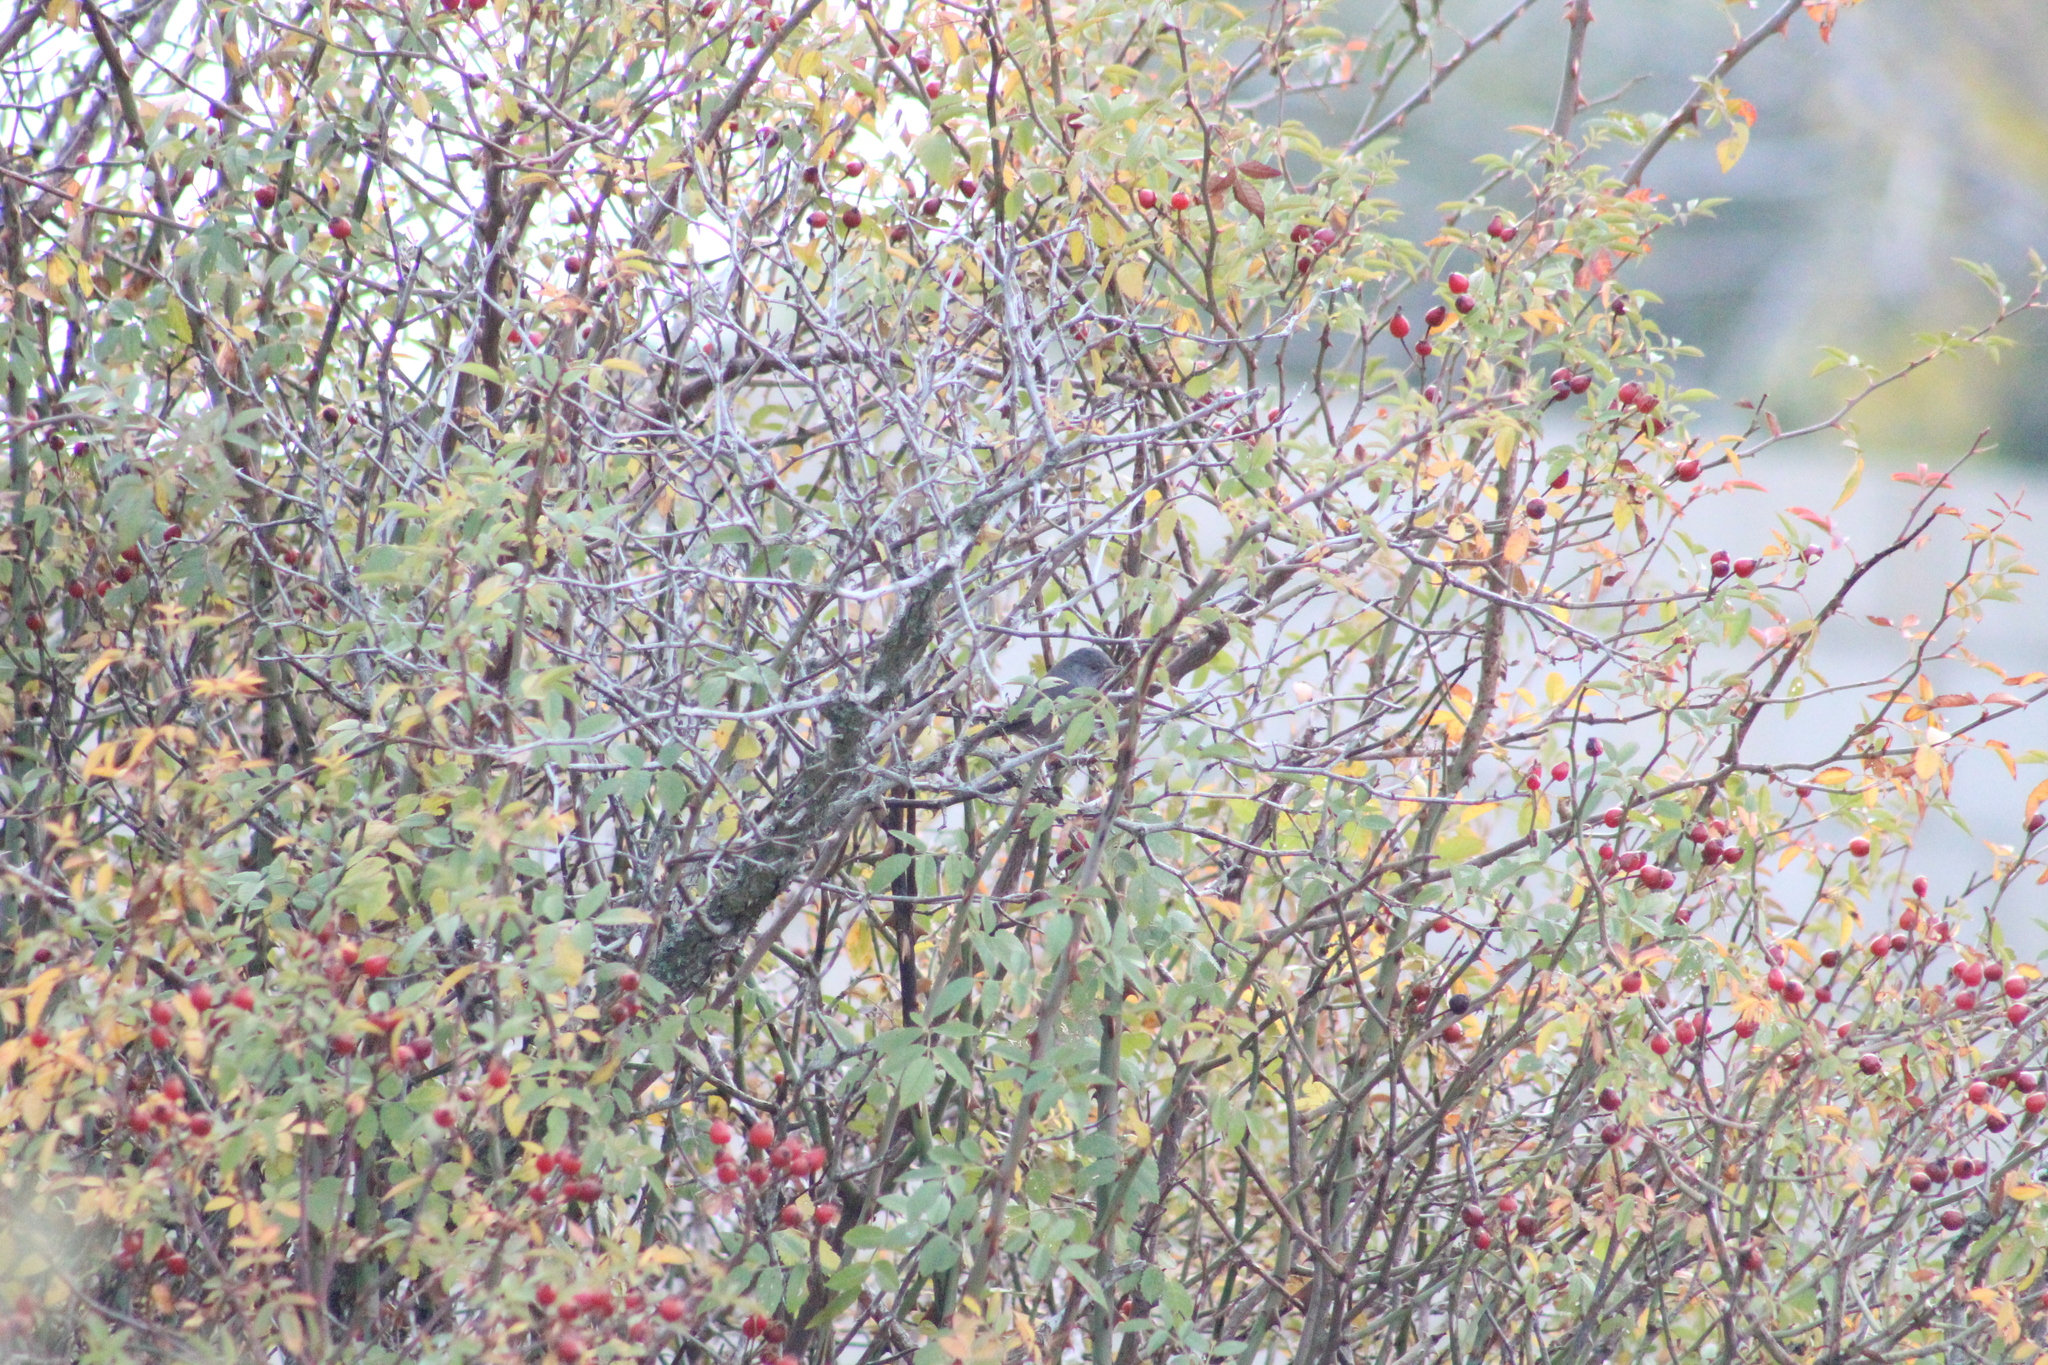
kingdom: Animalia
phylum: Chordata
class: Aves
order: Passeriformes
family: Sylviidae
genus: Sylvia
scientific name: Sylvia undata
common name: Dartford warbler
